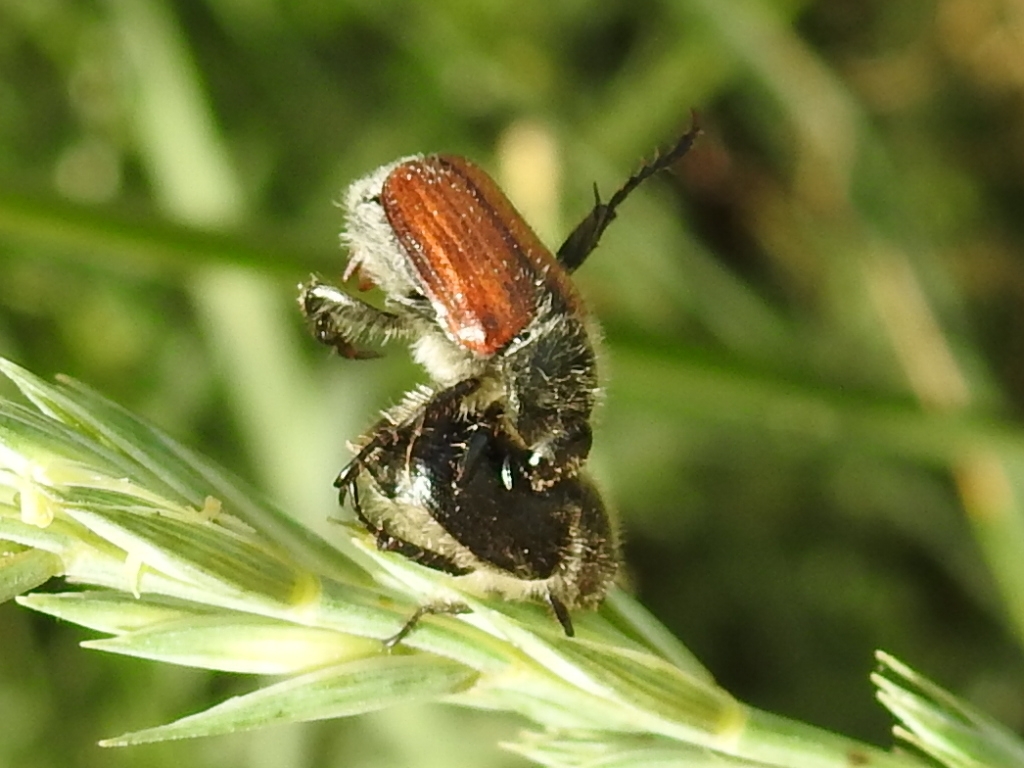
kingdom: Animalia
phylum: Arthropoda
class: Insecta
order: Coleoptera
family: Scarabaeidae
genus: Exomala
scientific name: Exomala leonii
